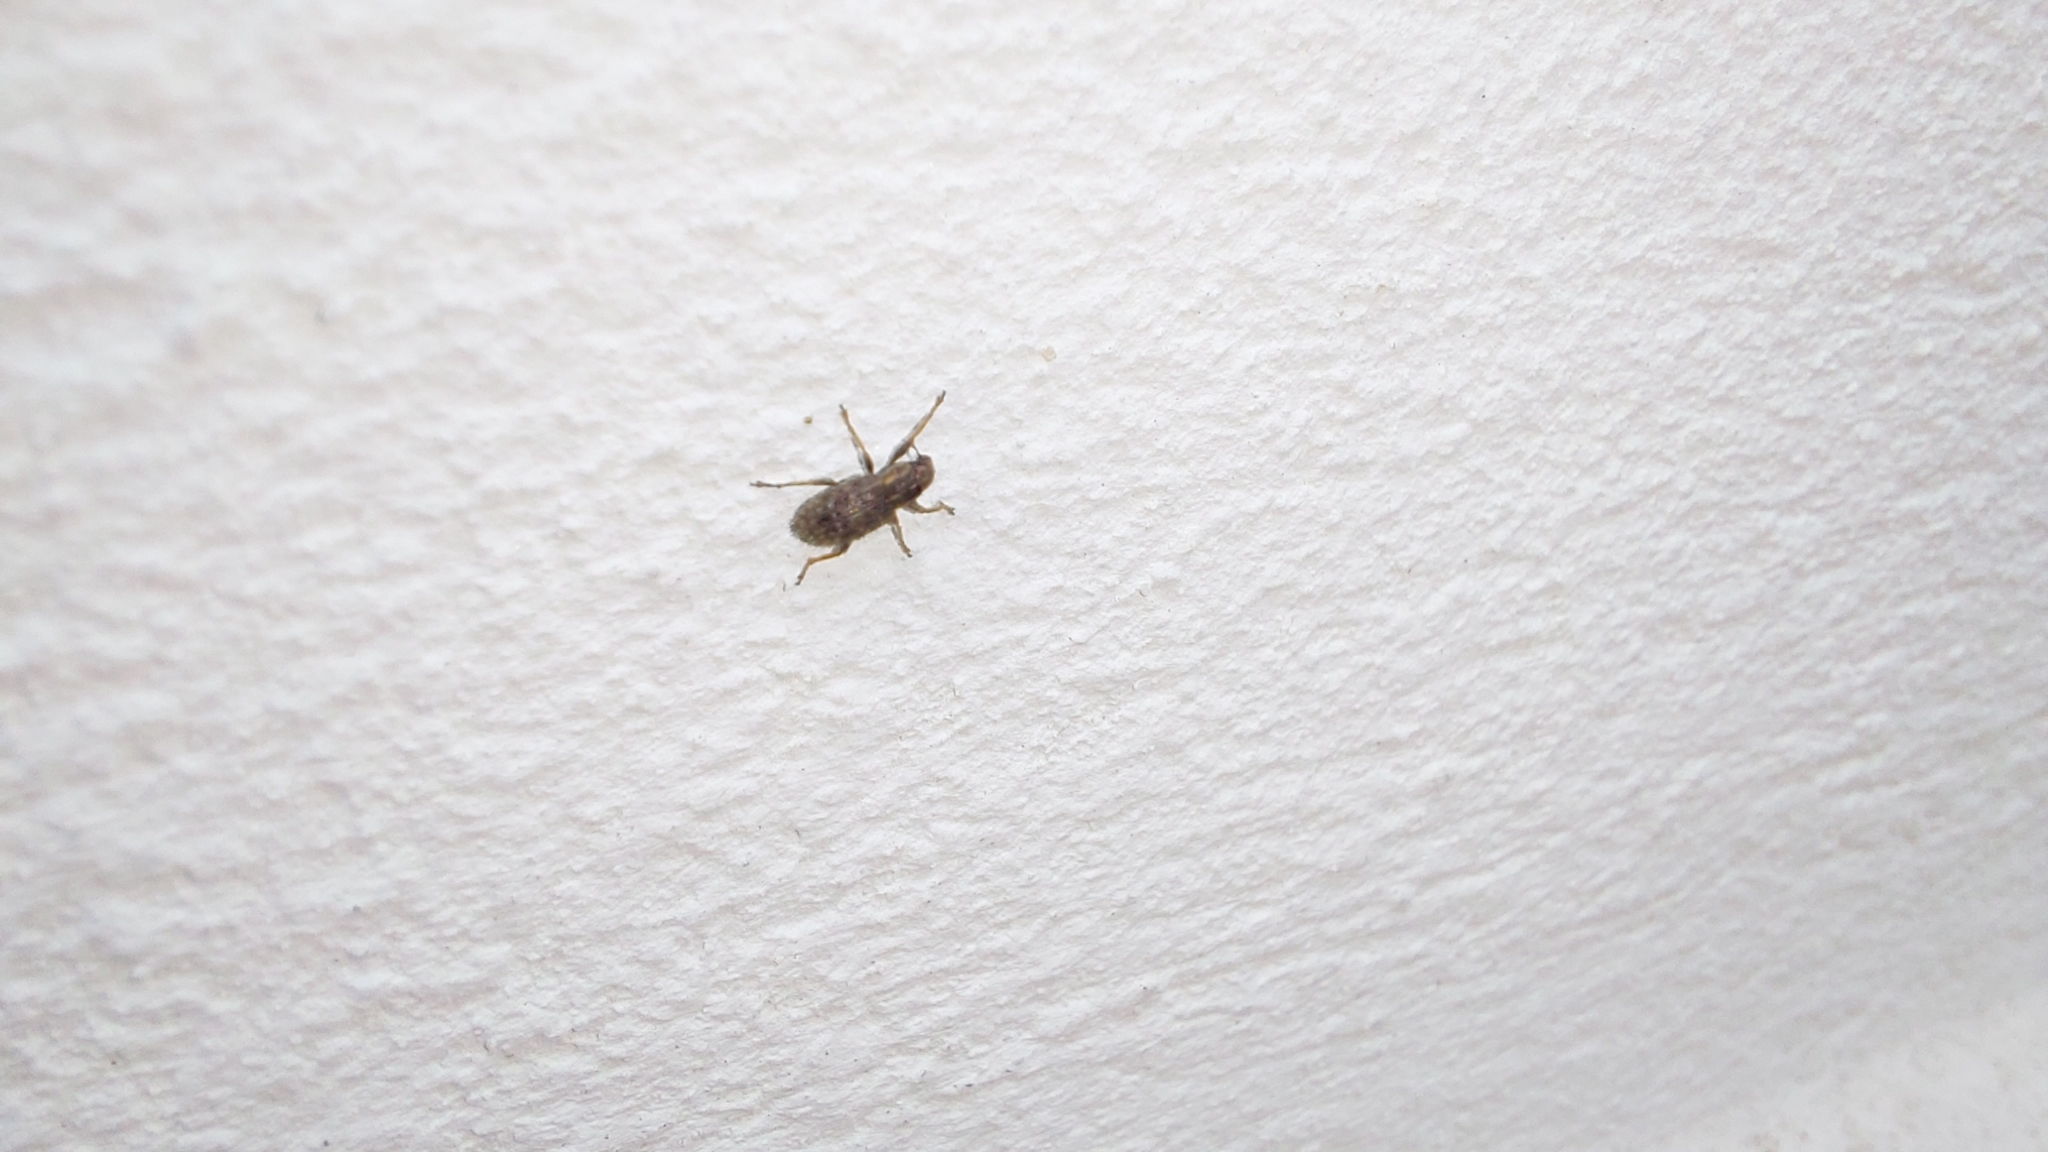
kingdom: Animalia
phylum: Arthropoda
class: Insecta
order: Coleoptera
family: Curculionidae
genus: Sitona
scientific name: Sitona hispidulus
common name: Clover weevil
